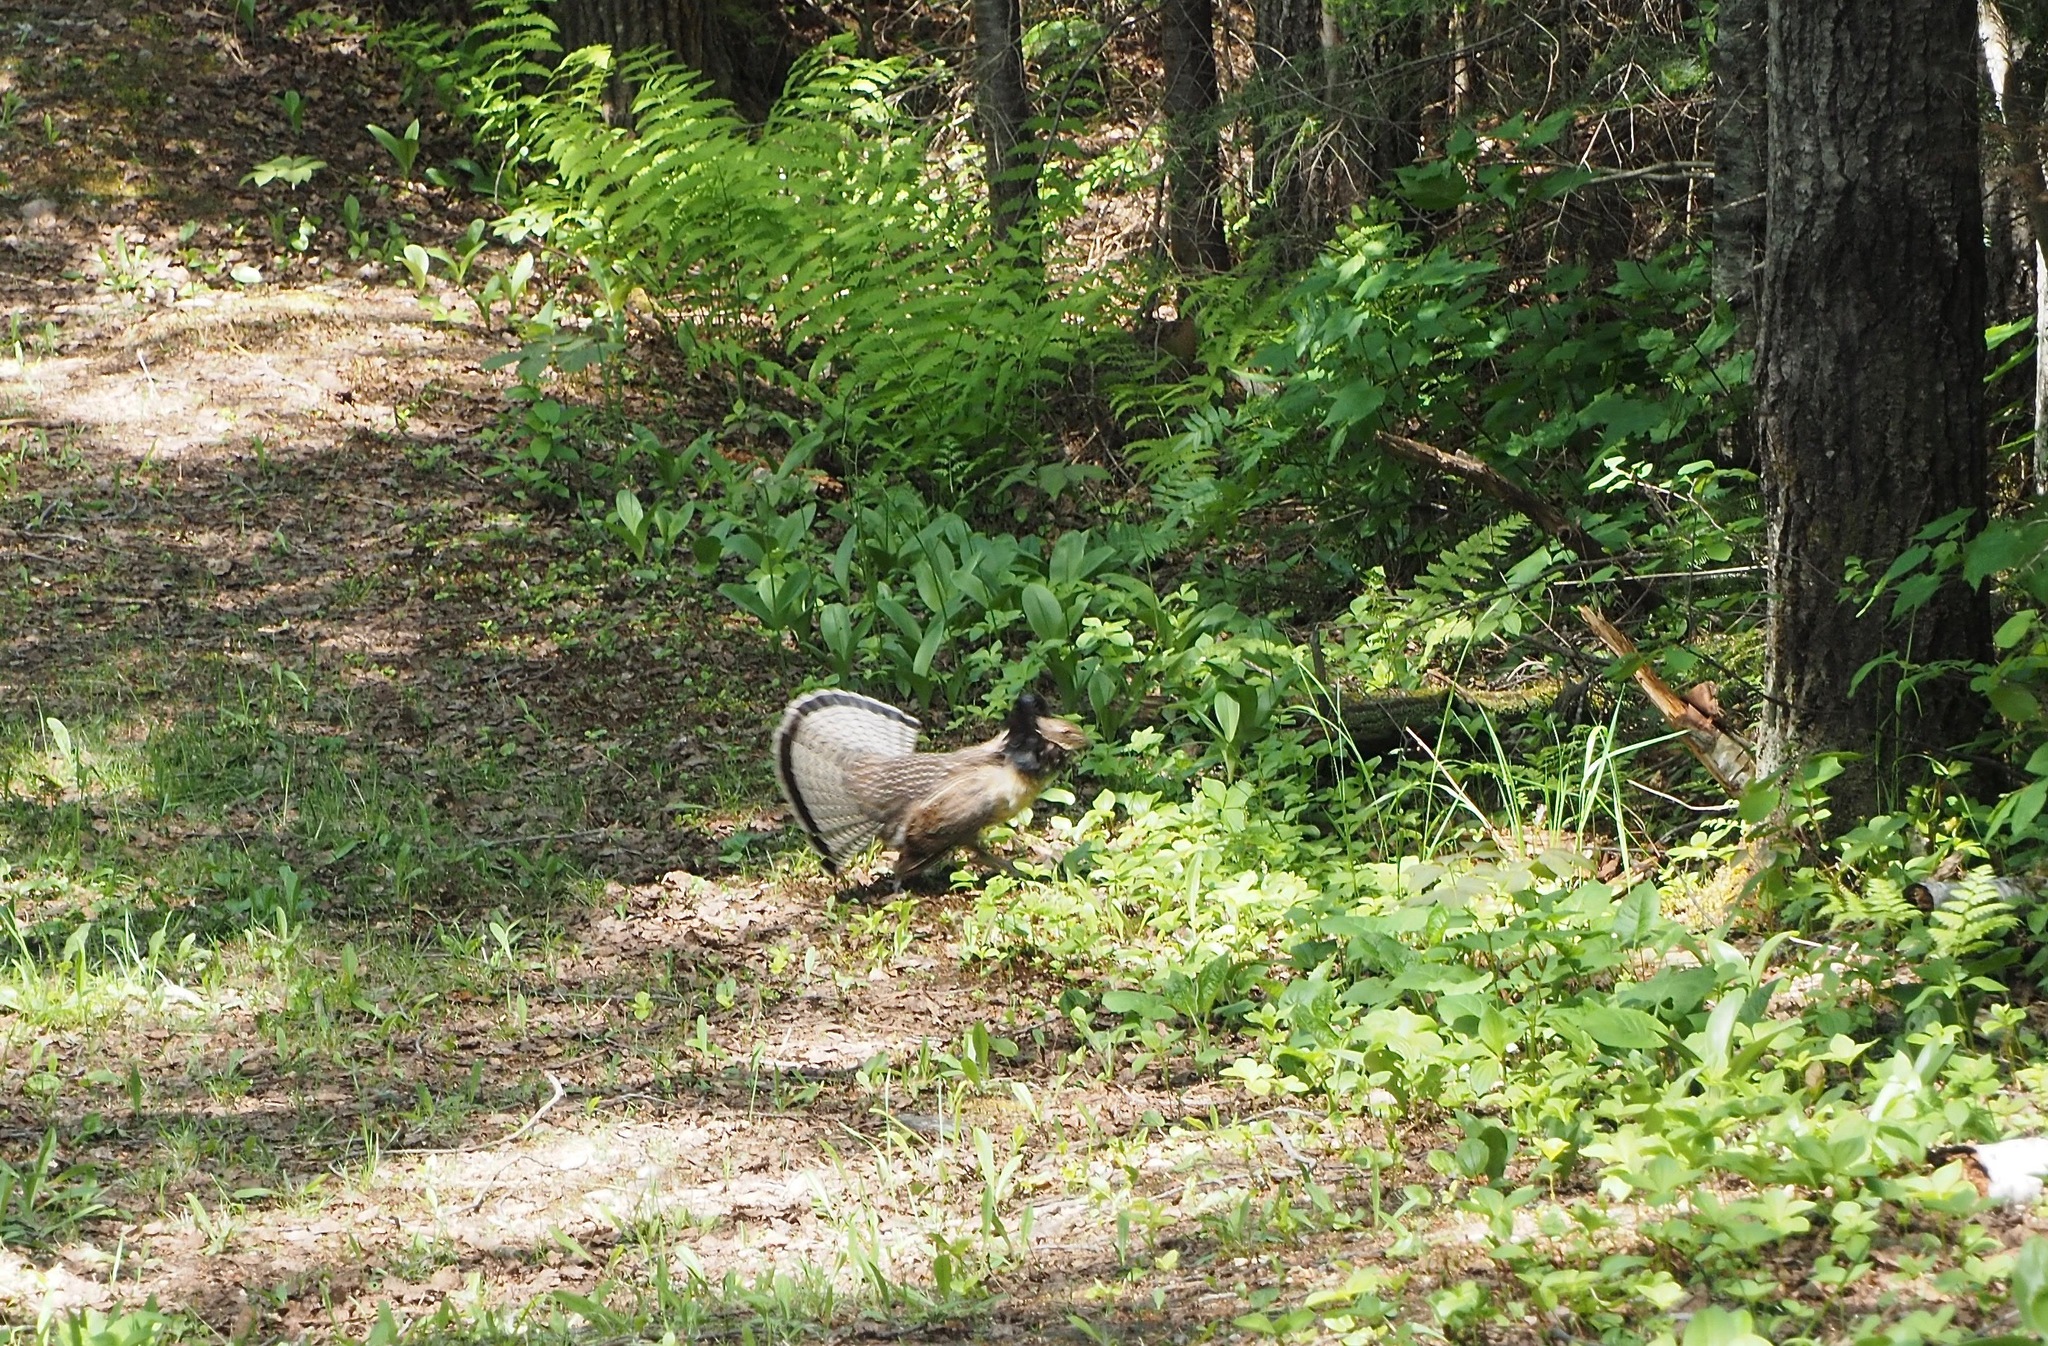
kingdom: Animalia
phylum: Chordata
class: Aves
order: Galliformes
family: Phasianidae
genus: Bonasa
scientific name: Bonasa umbellus
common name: Ruffed grouse
